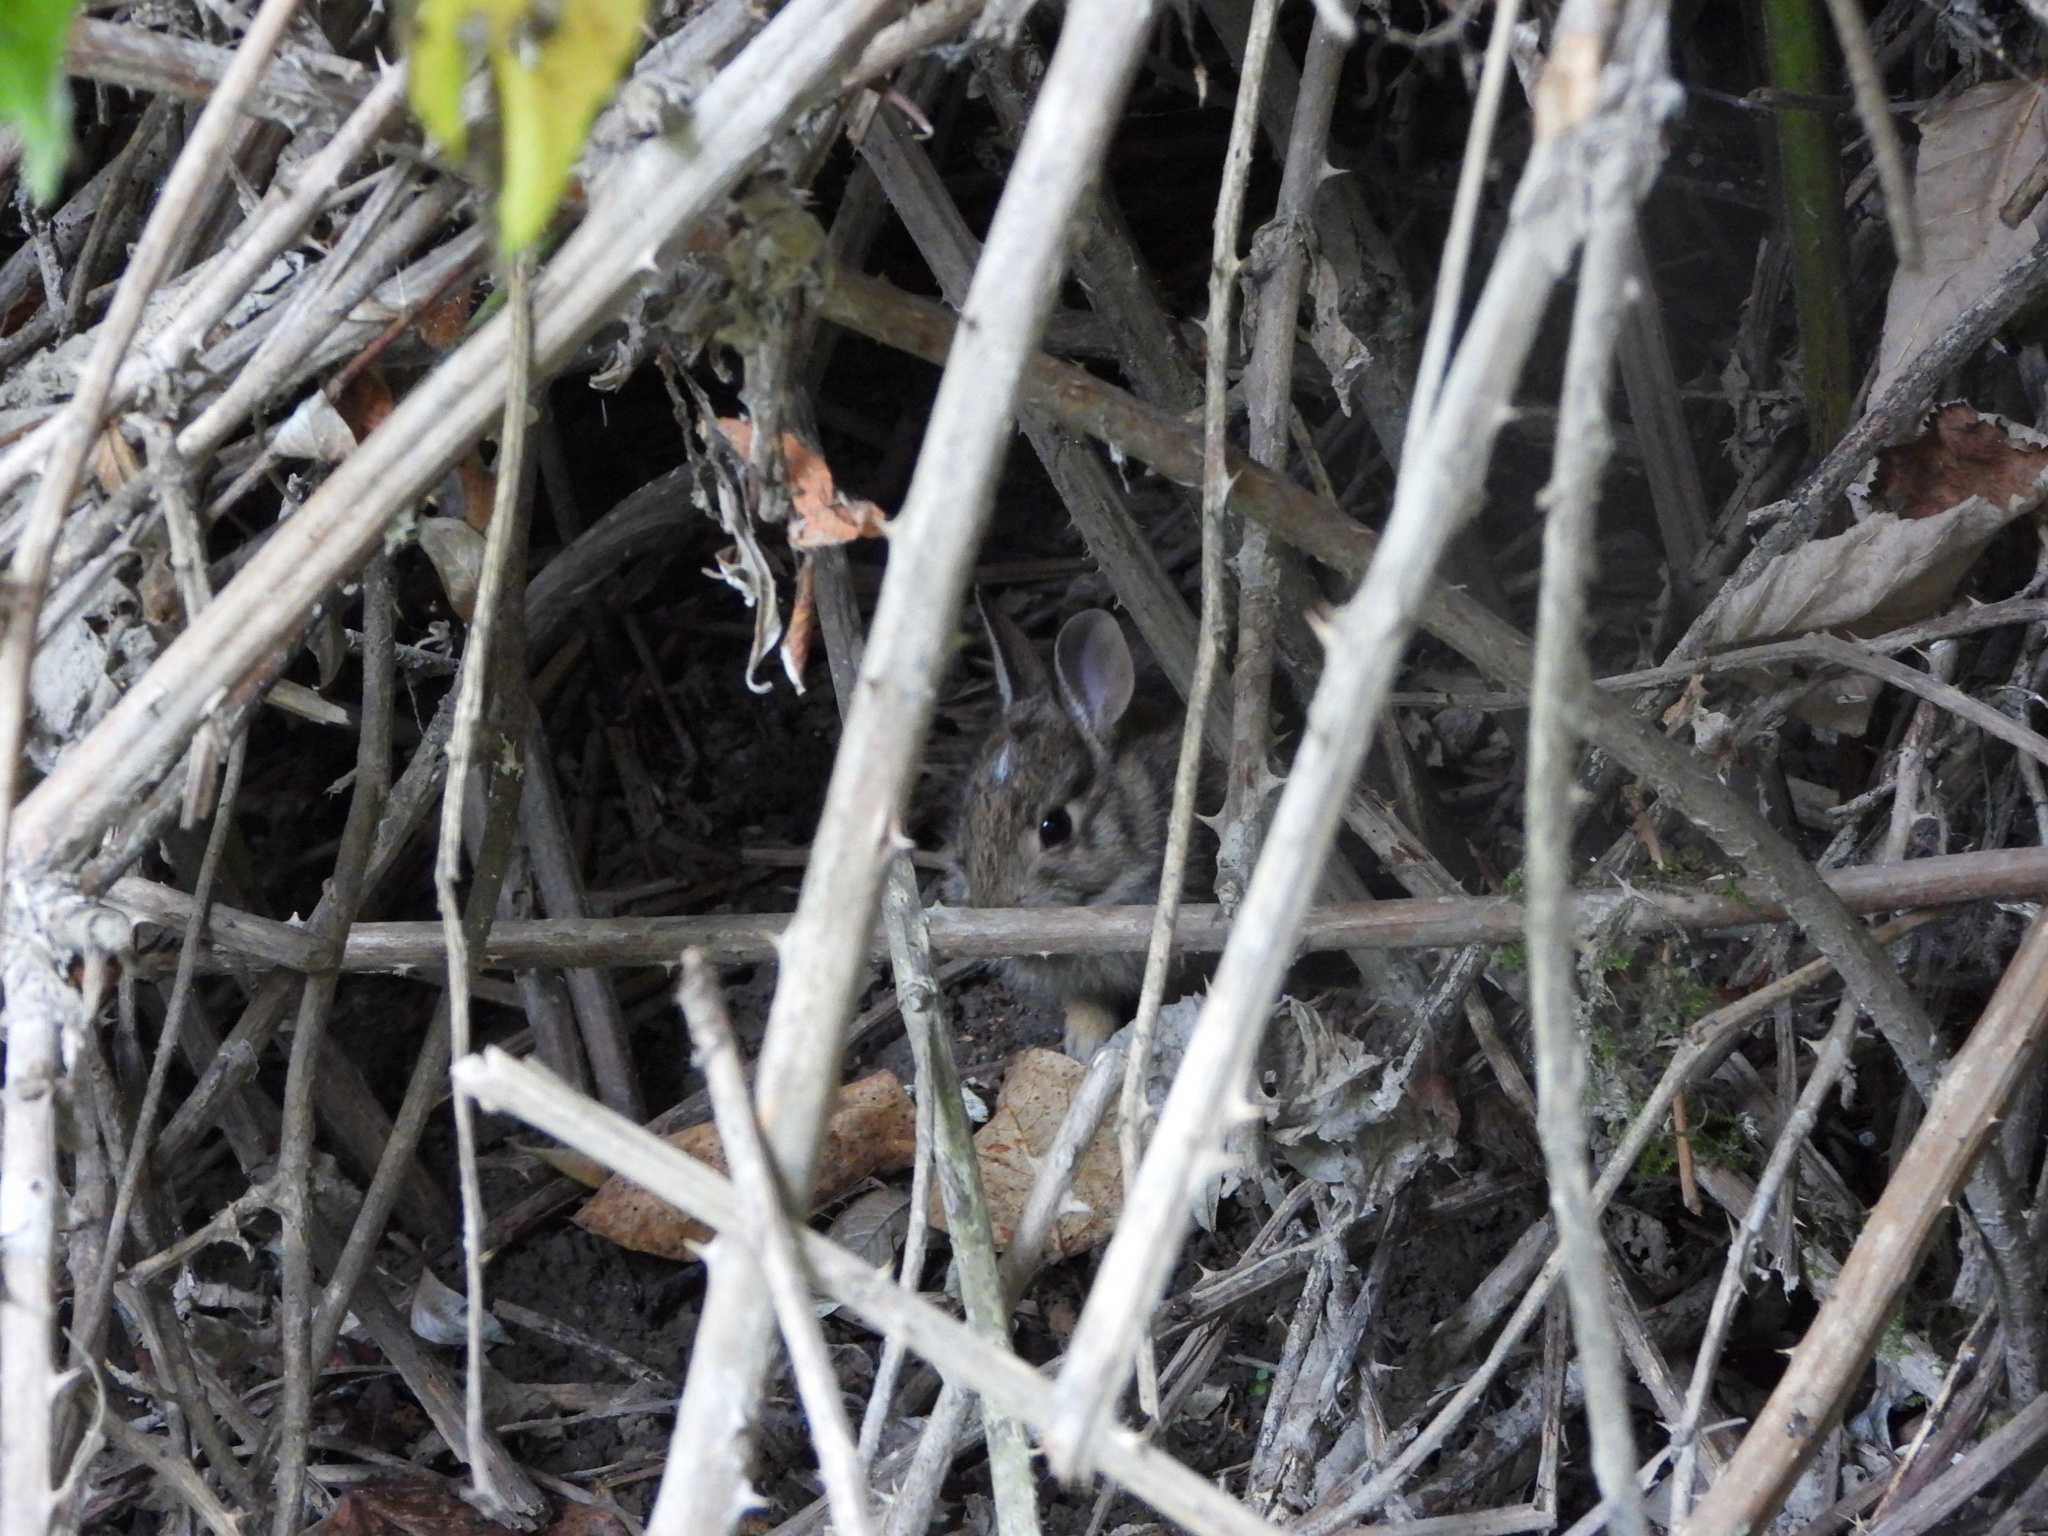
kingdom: Animalia
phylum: Chordata
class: Mammalia
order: Lagomorpha
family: Leporidae
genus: Sylvilagus
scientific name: Sylvilagus floridanus
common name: Eastern cottontail
